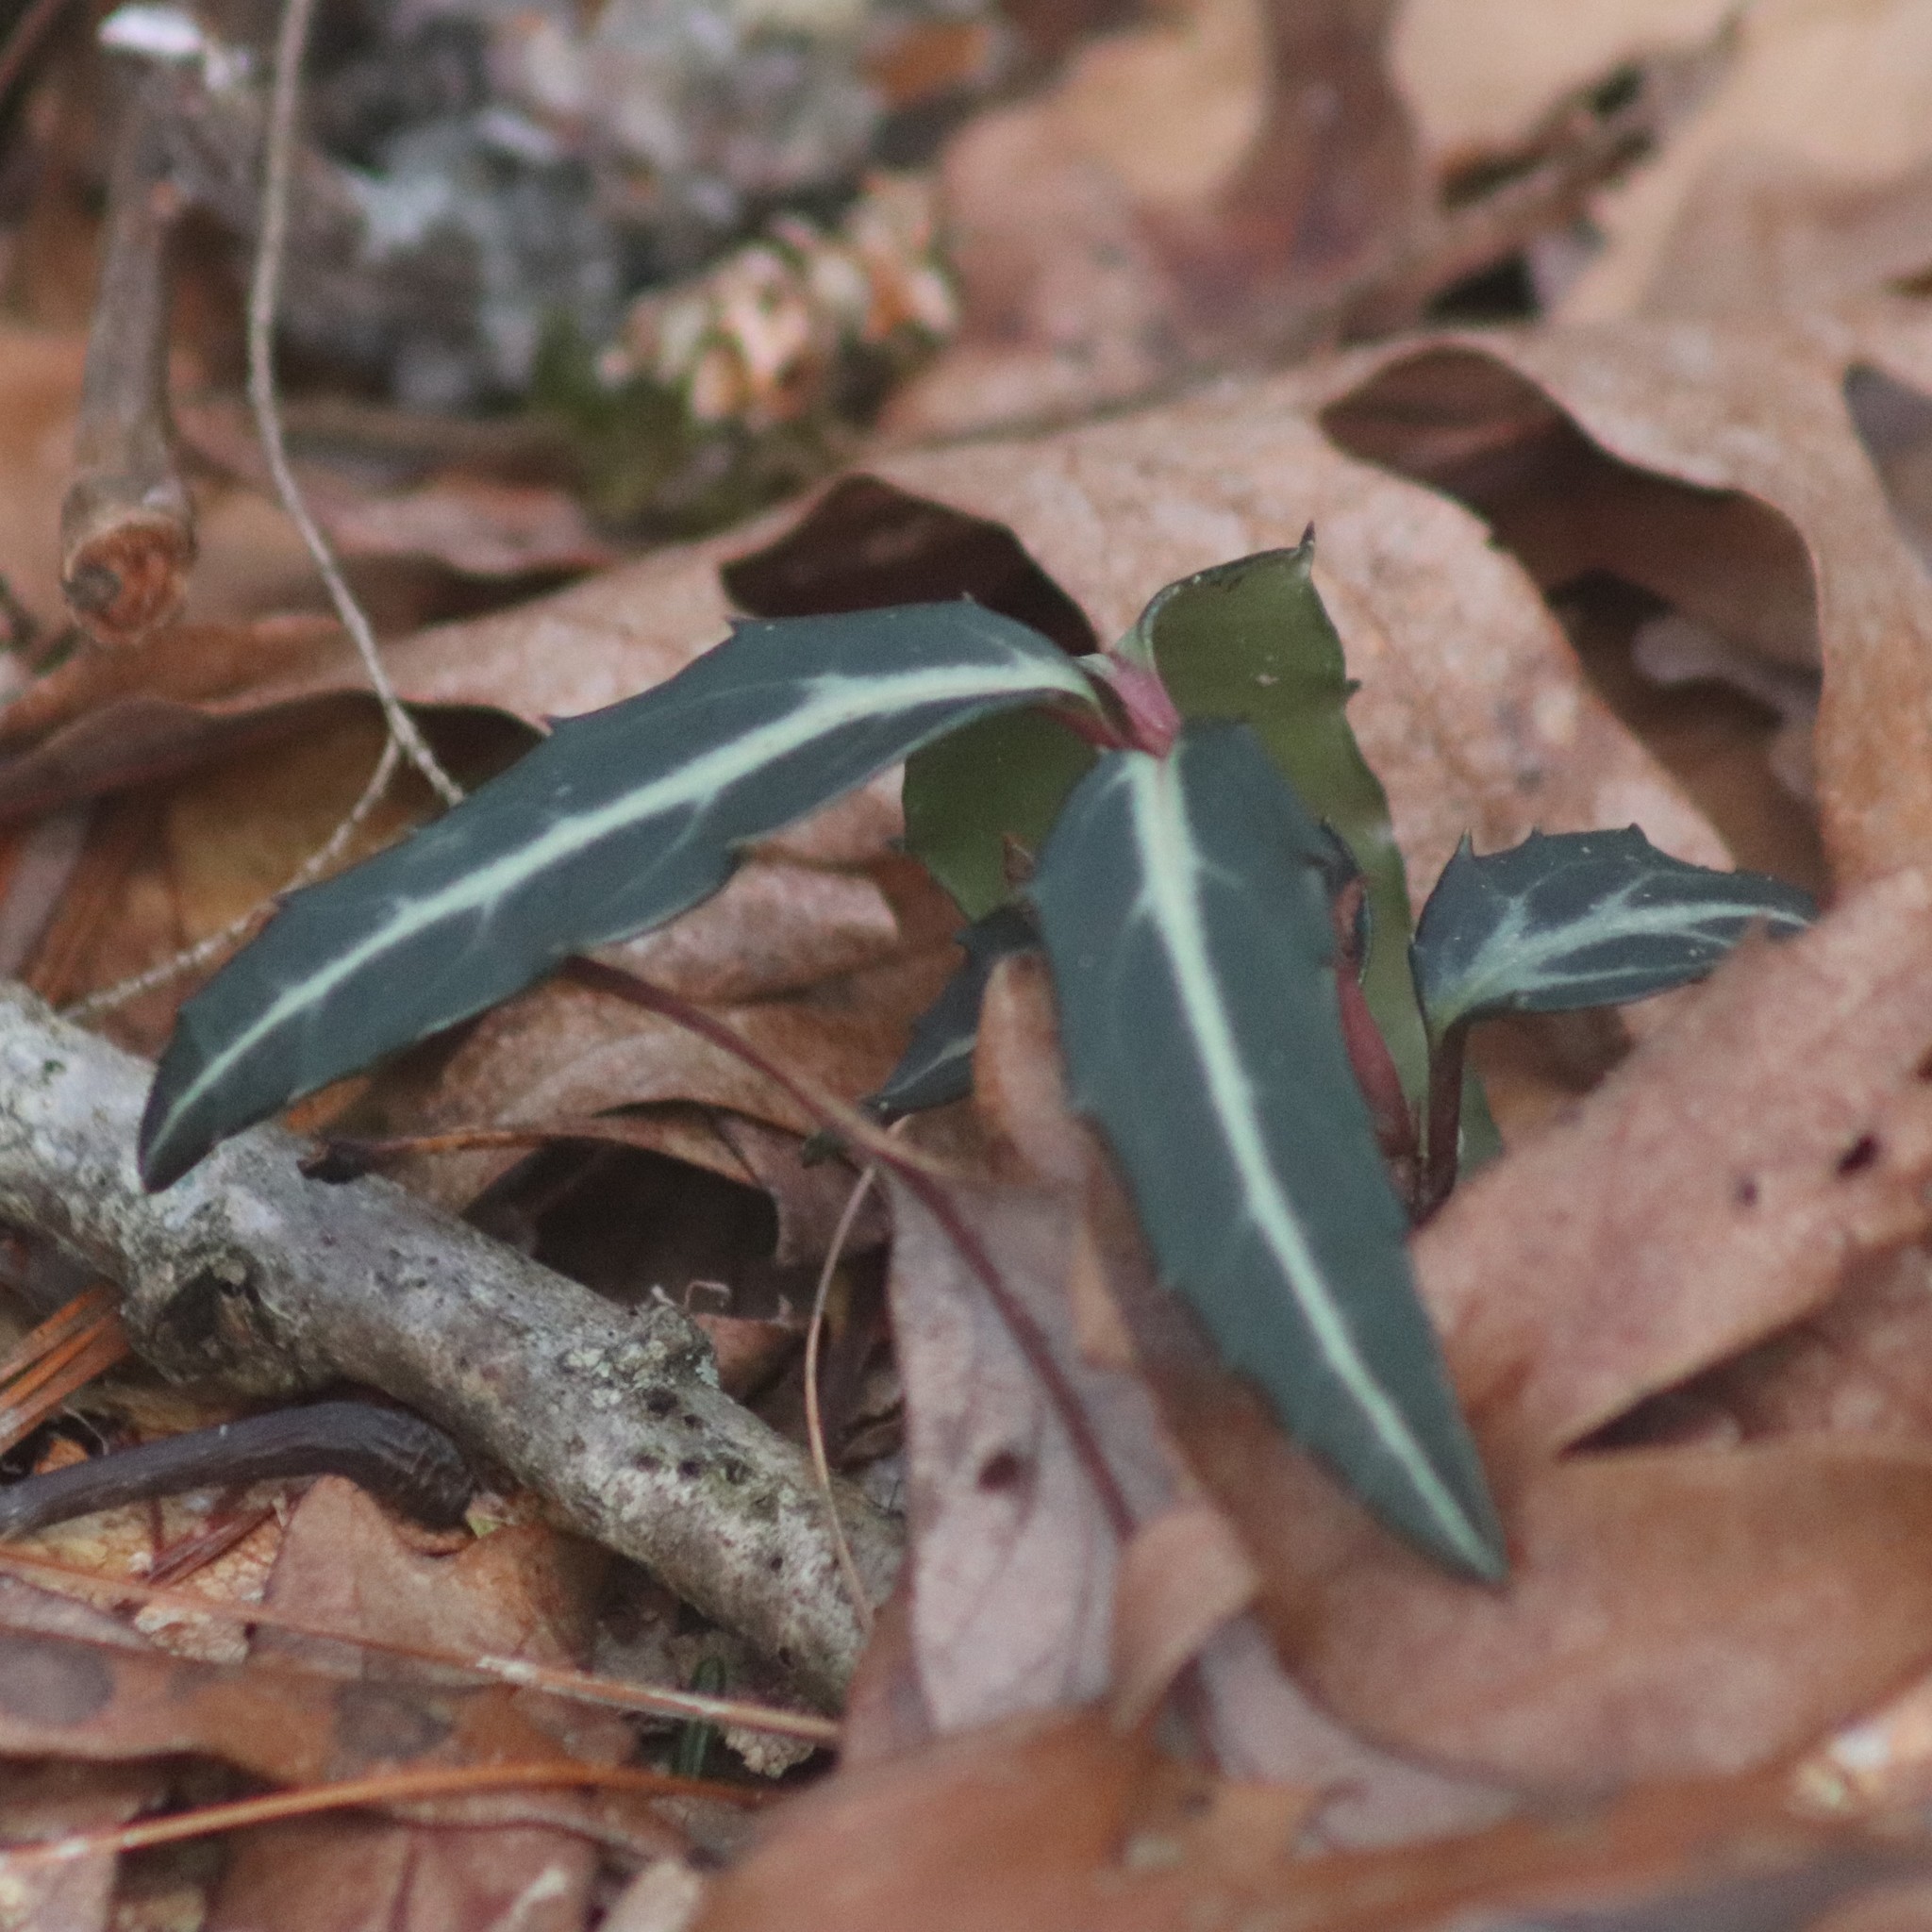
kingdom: Plantae
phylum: Tracheophyta
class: Magnoliopsida
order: Ericales
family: Ericaceae
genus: Chimaphila
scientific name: Chimaphila maculata
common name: Spotted pipsissewa
